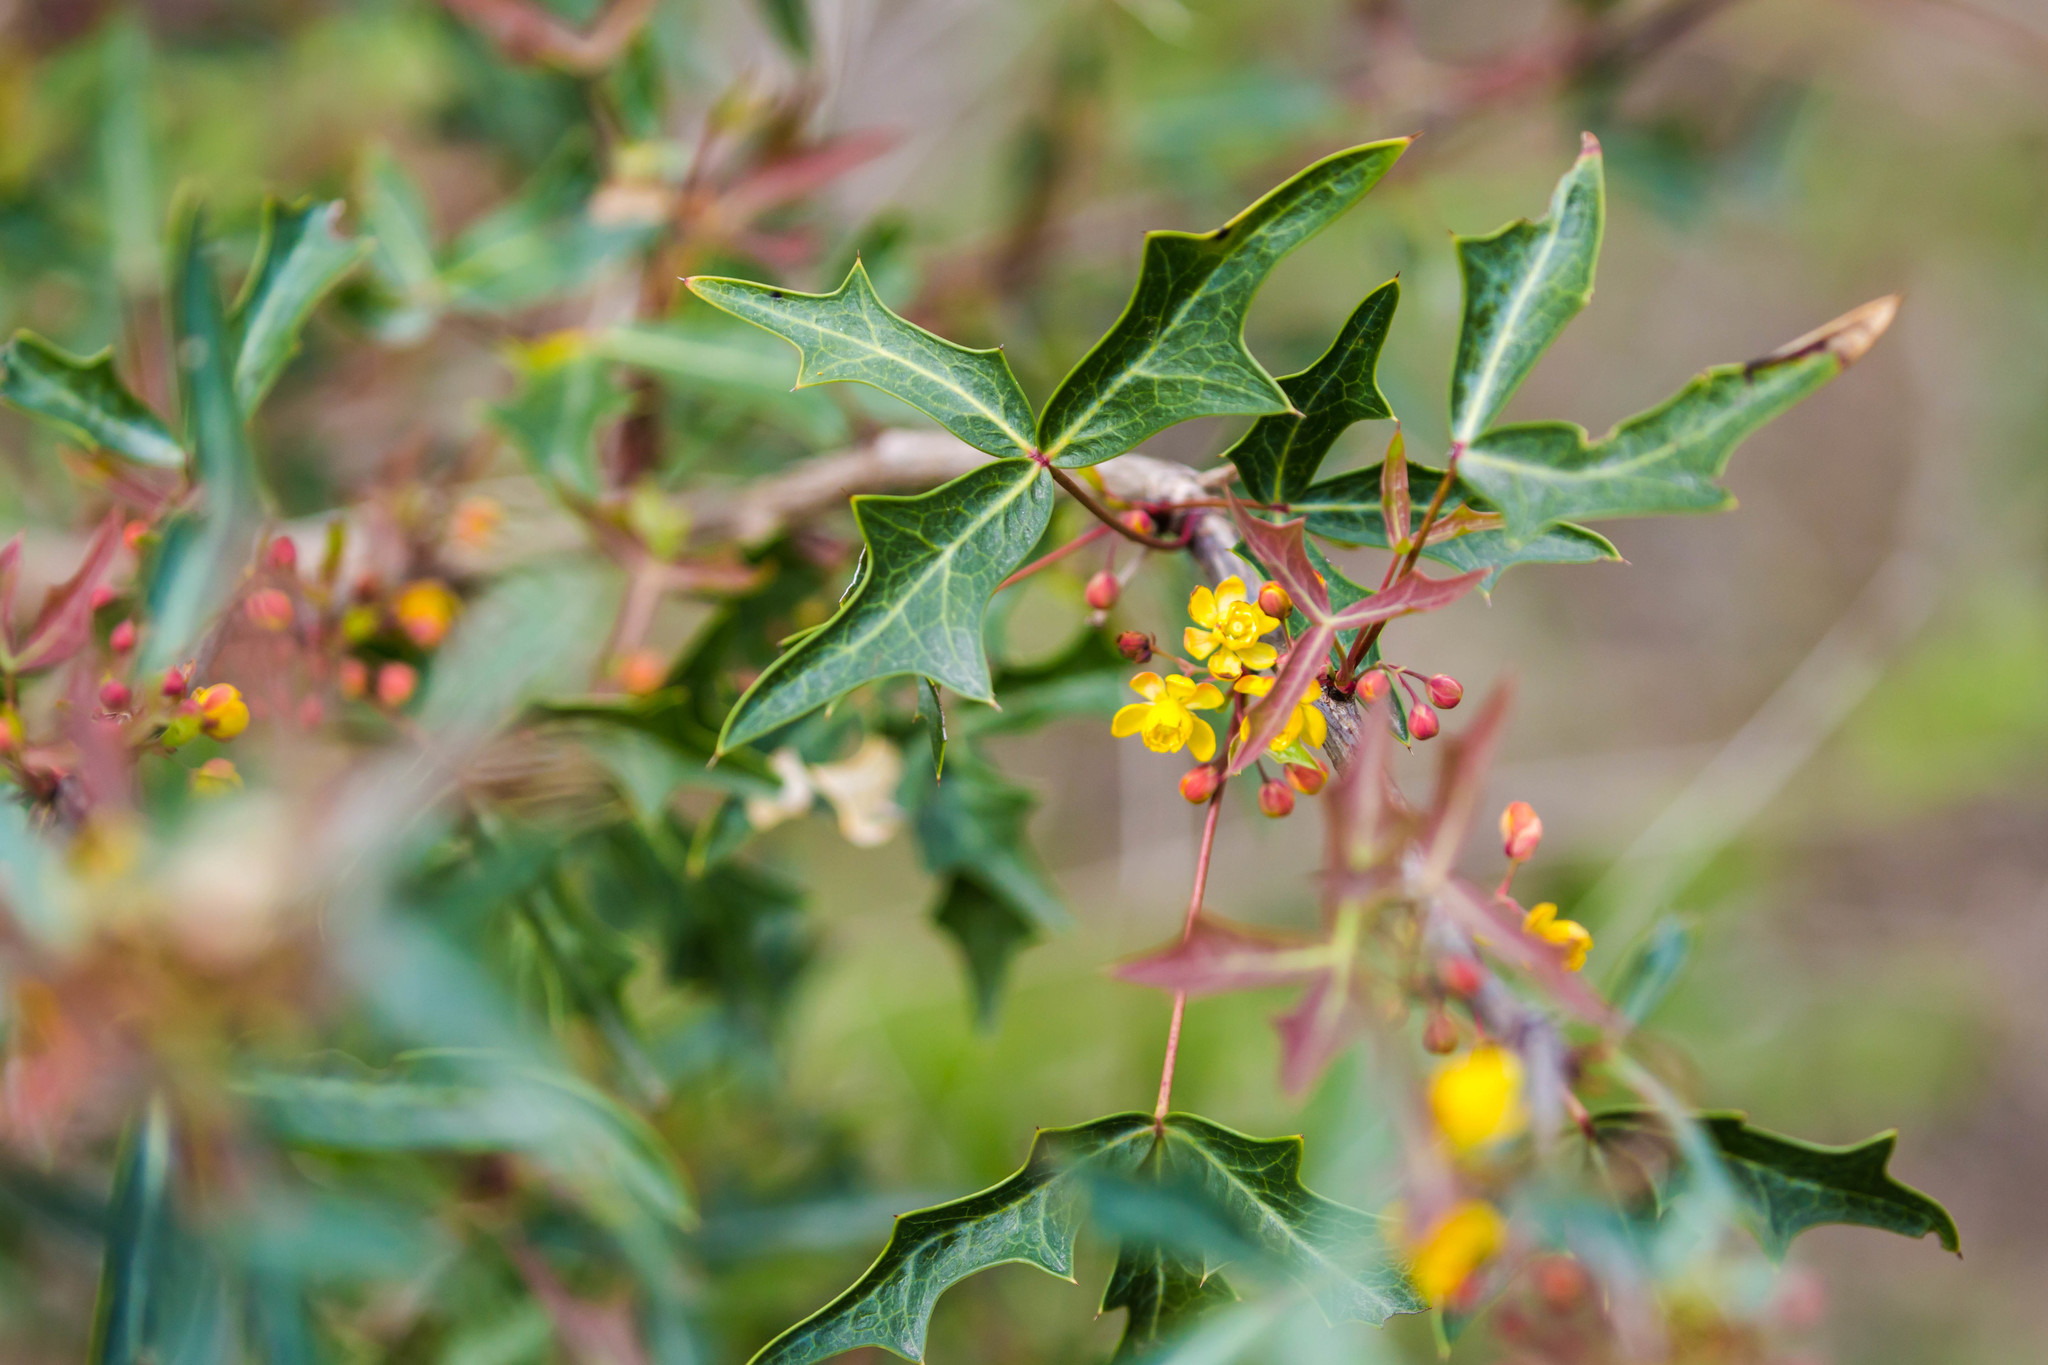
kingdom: Plantae
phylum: Tracheophyta
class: Magnoliopsida
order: Ranunculales
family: Berberidaceae
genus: Alloberberis
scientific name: Alloberberis trifoliolata
